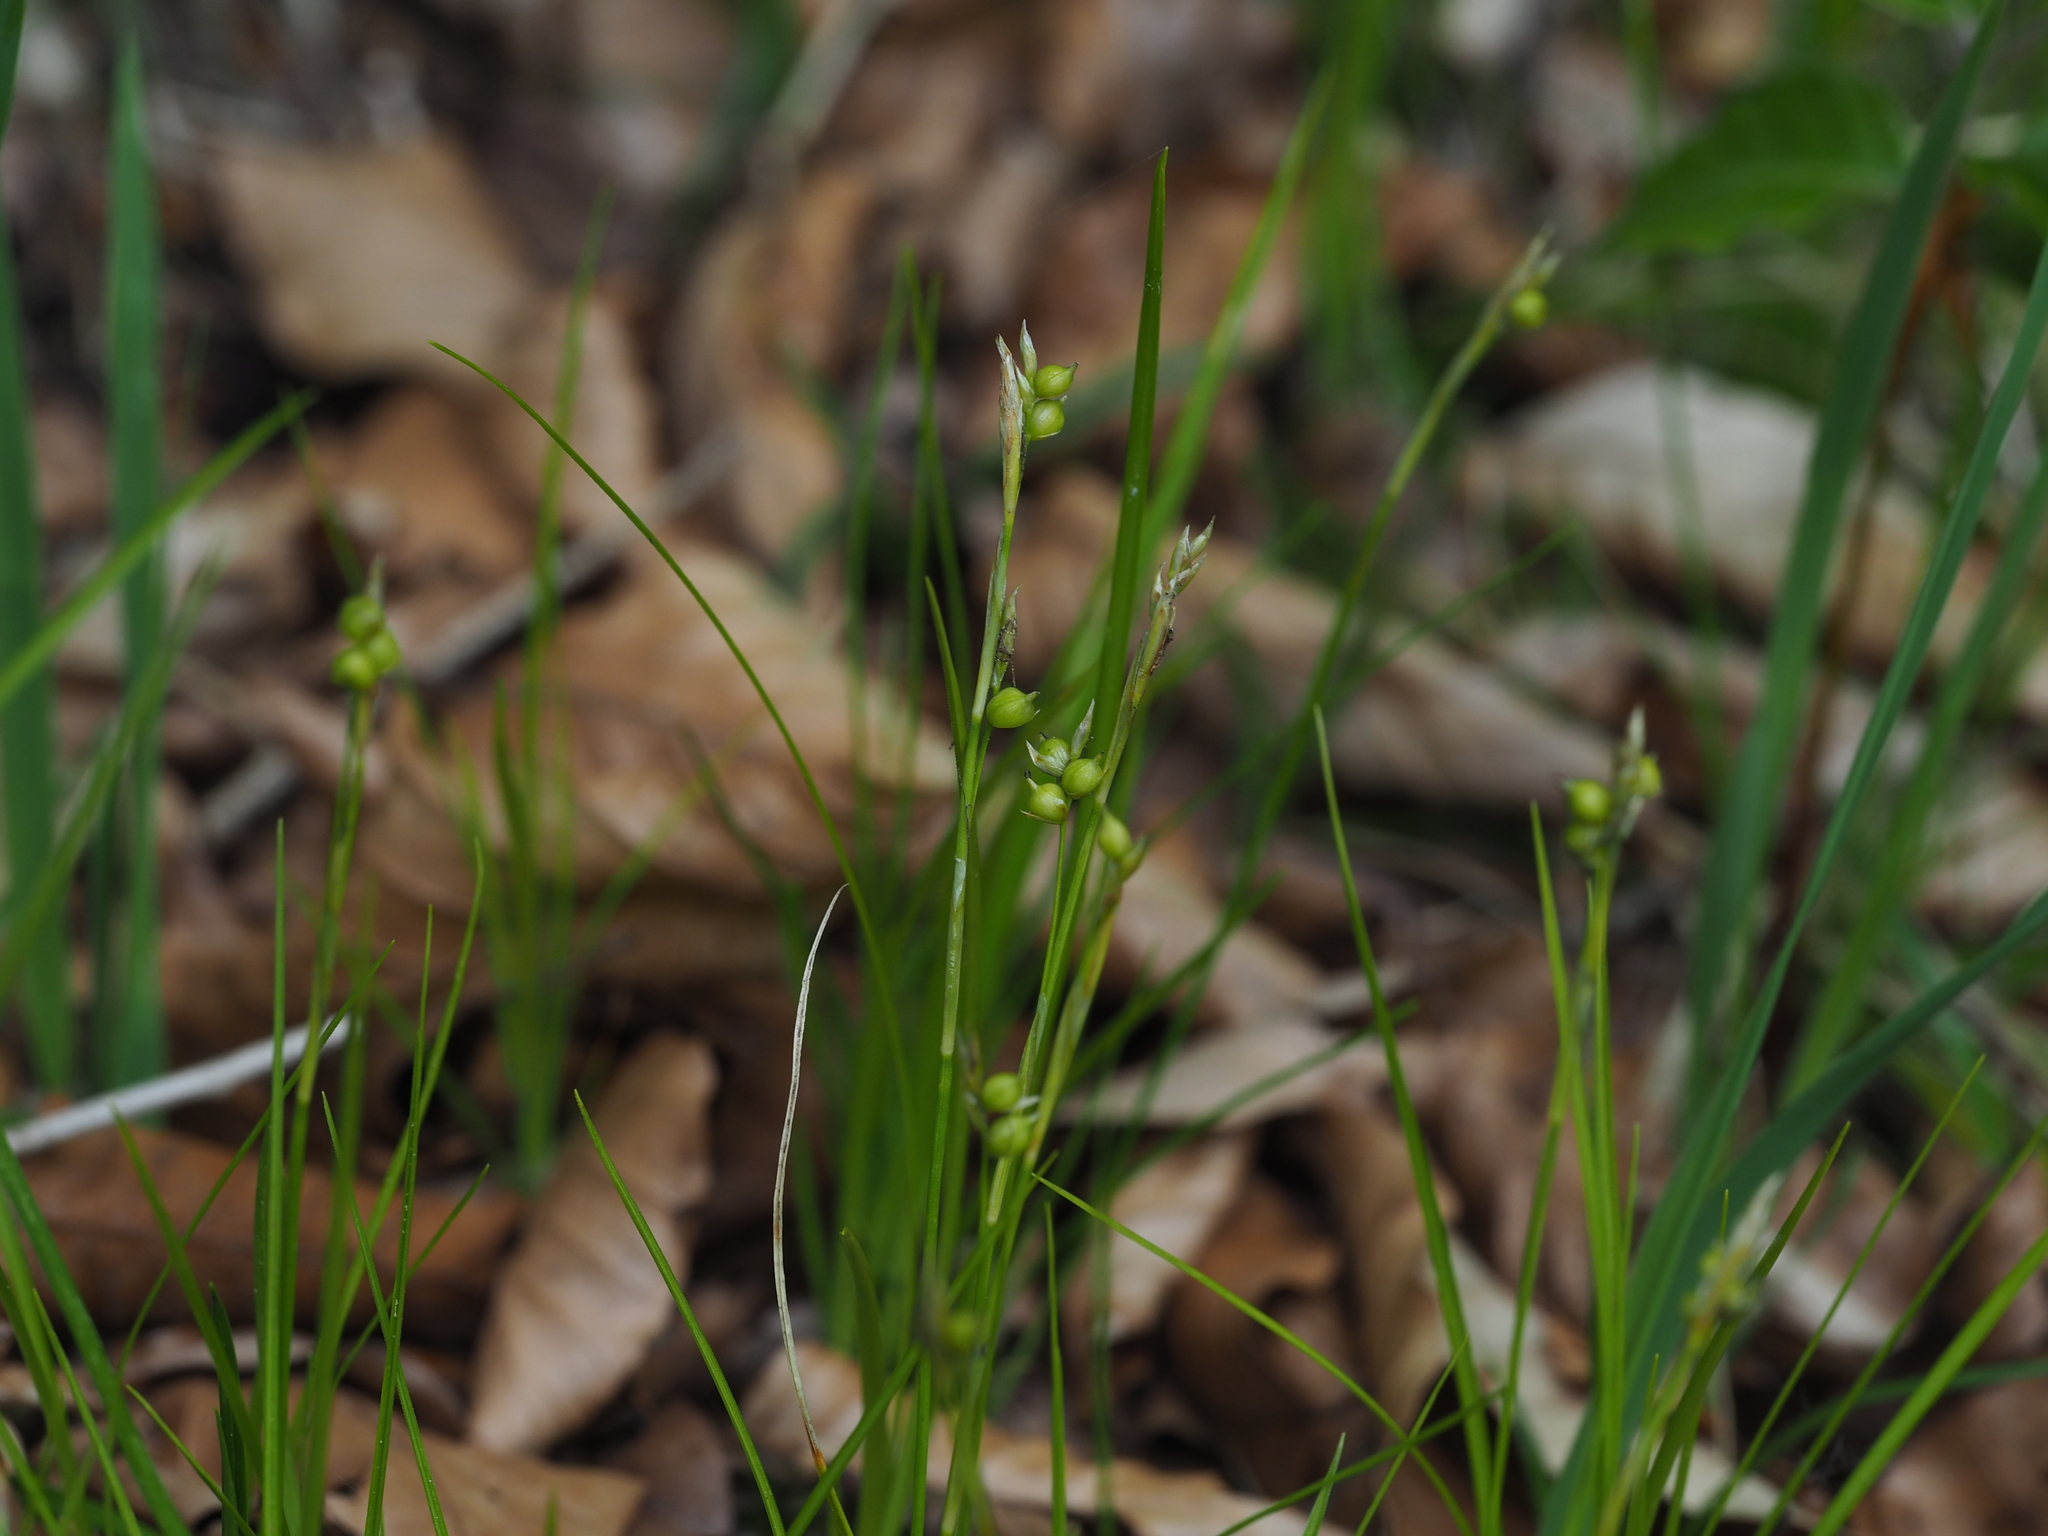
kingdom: Plantae
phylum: Tracheophyta
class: Liliopsida
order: Poales
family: Cyperaceae
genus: Carex
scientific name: Carex alba
